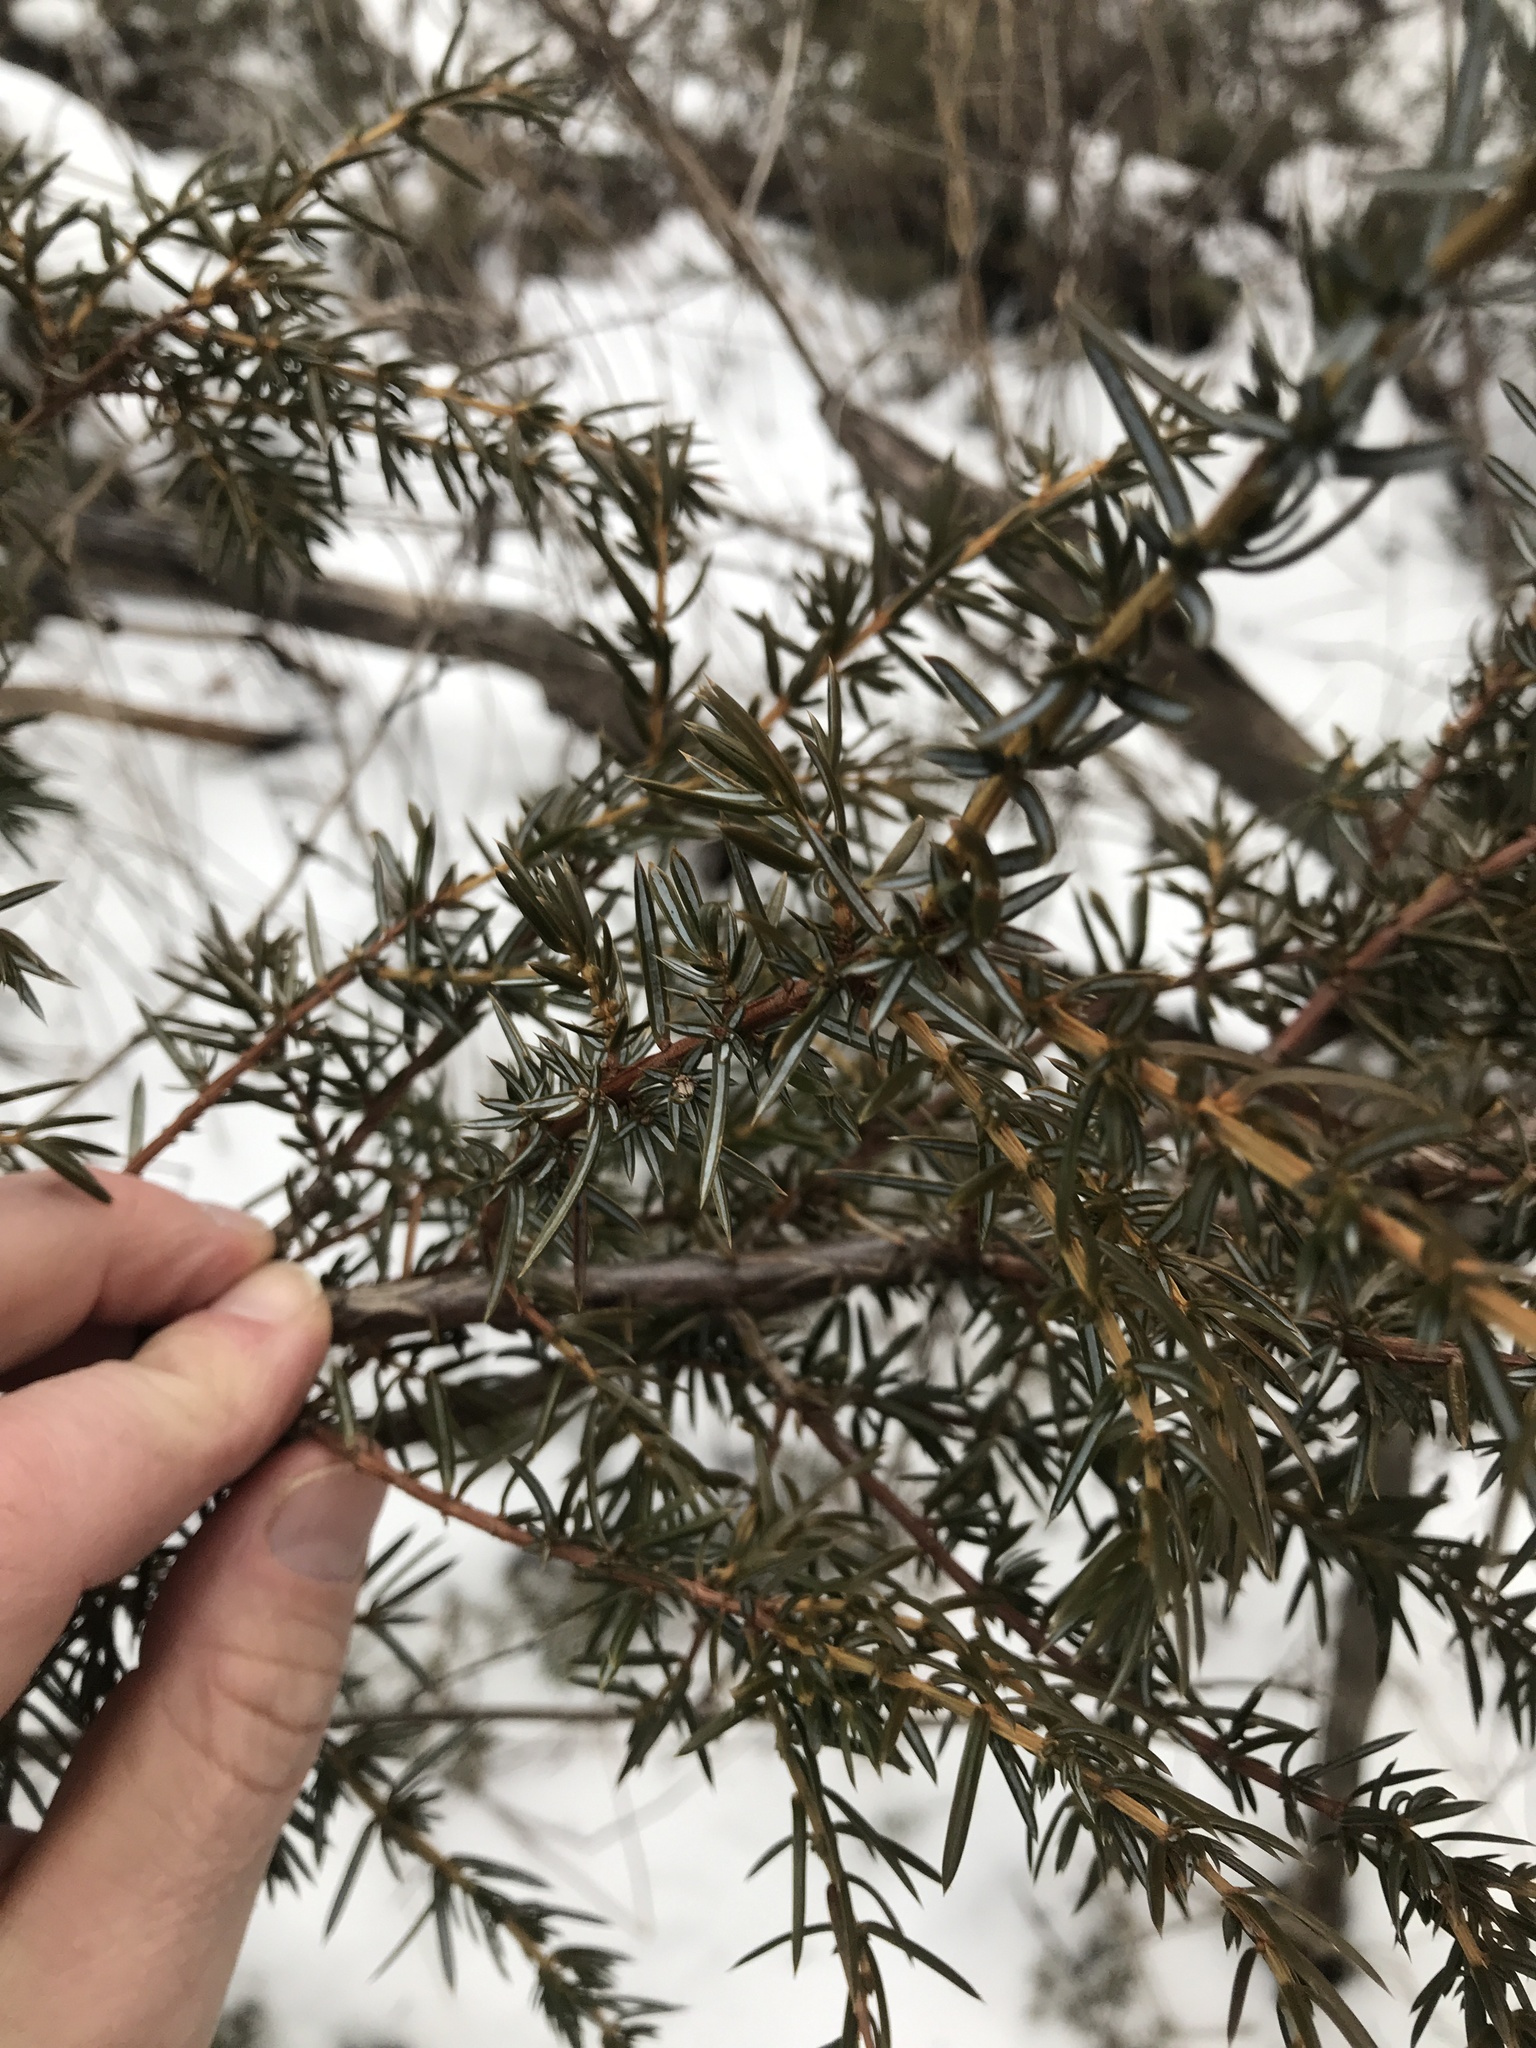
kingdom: Plantae
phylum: Tracheophyta
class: Pinopsida
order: Pinales
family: Cupressaceae
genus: Juniperus
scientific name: Juniperus communis
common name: Common juniper
